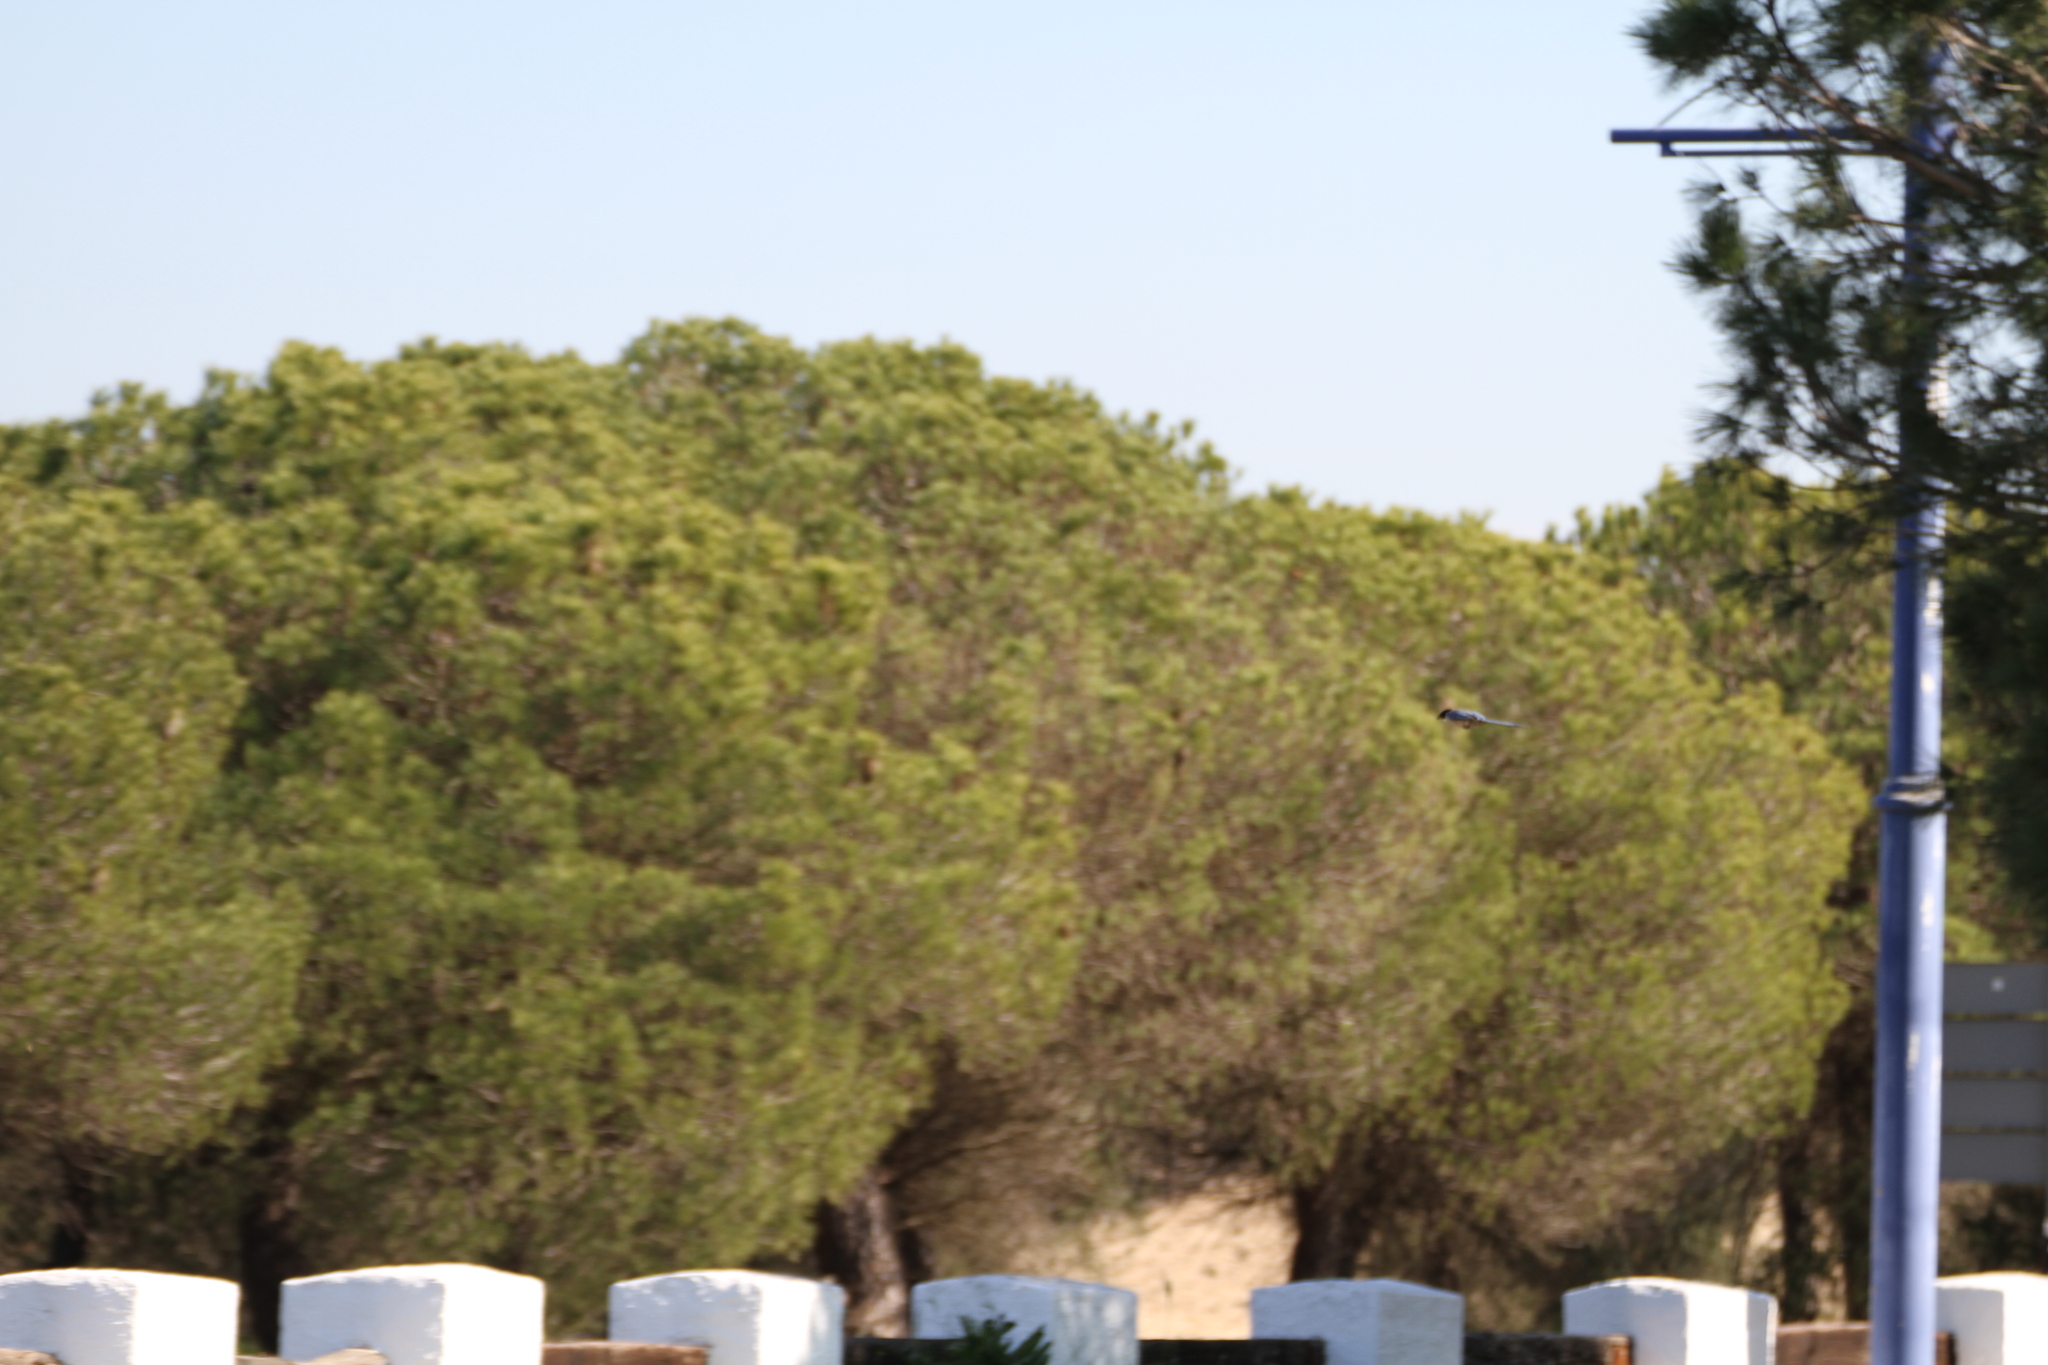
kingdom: Animalia
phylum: Chordata
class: Aves
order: Passeriformes
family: Corvidae
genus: Cyanopica
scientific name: Cyanopica cooki
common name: Iberian magpie
